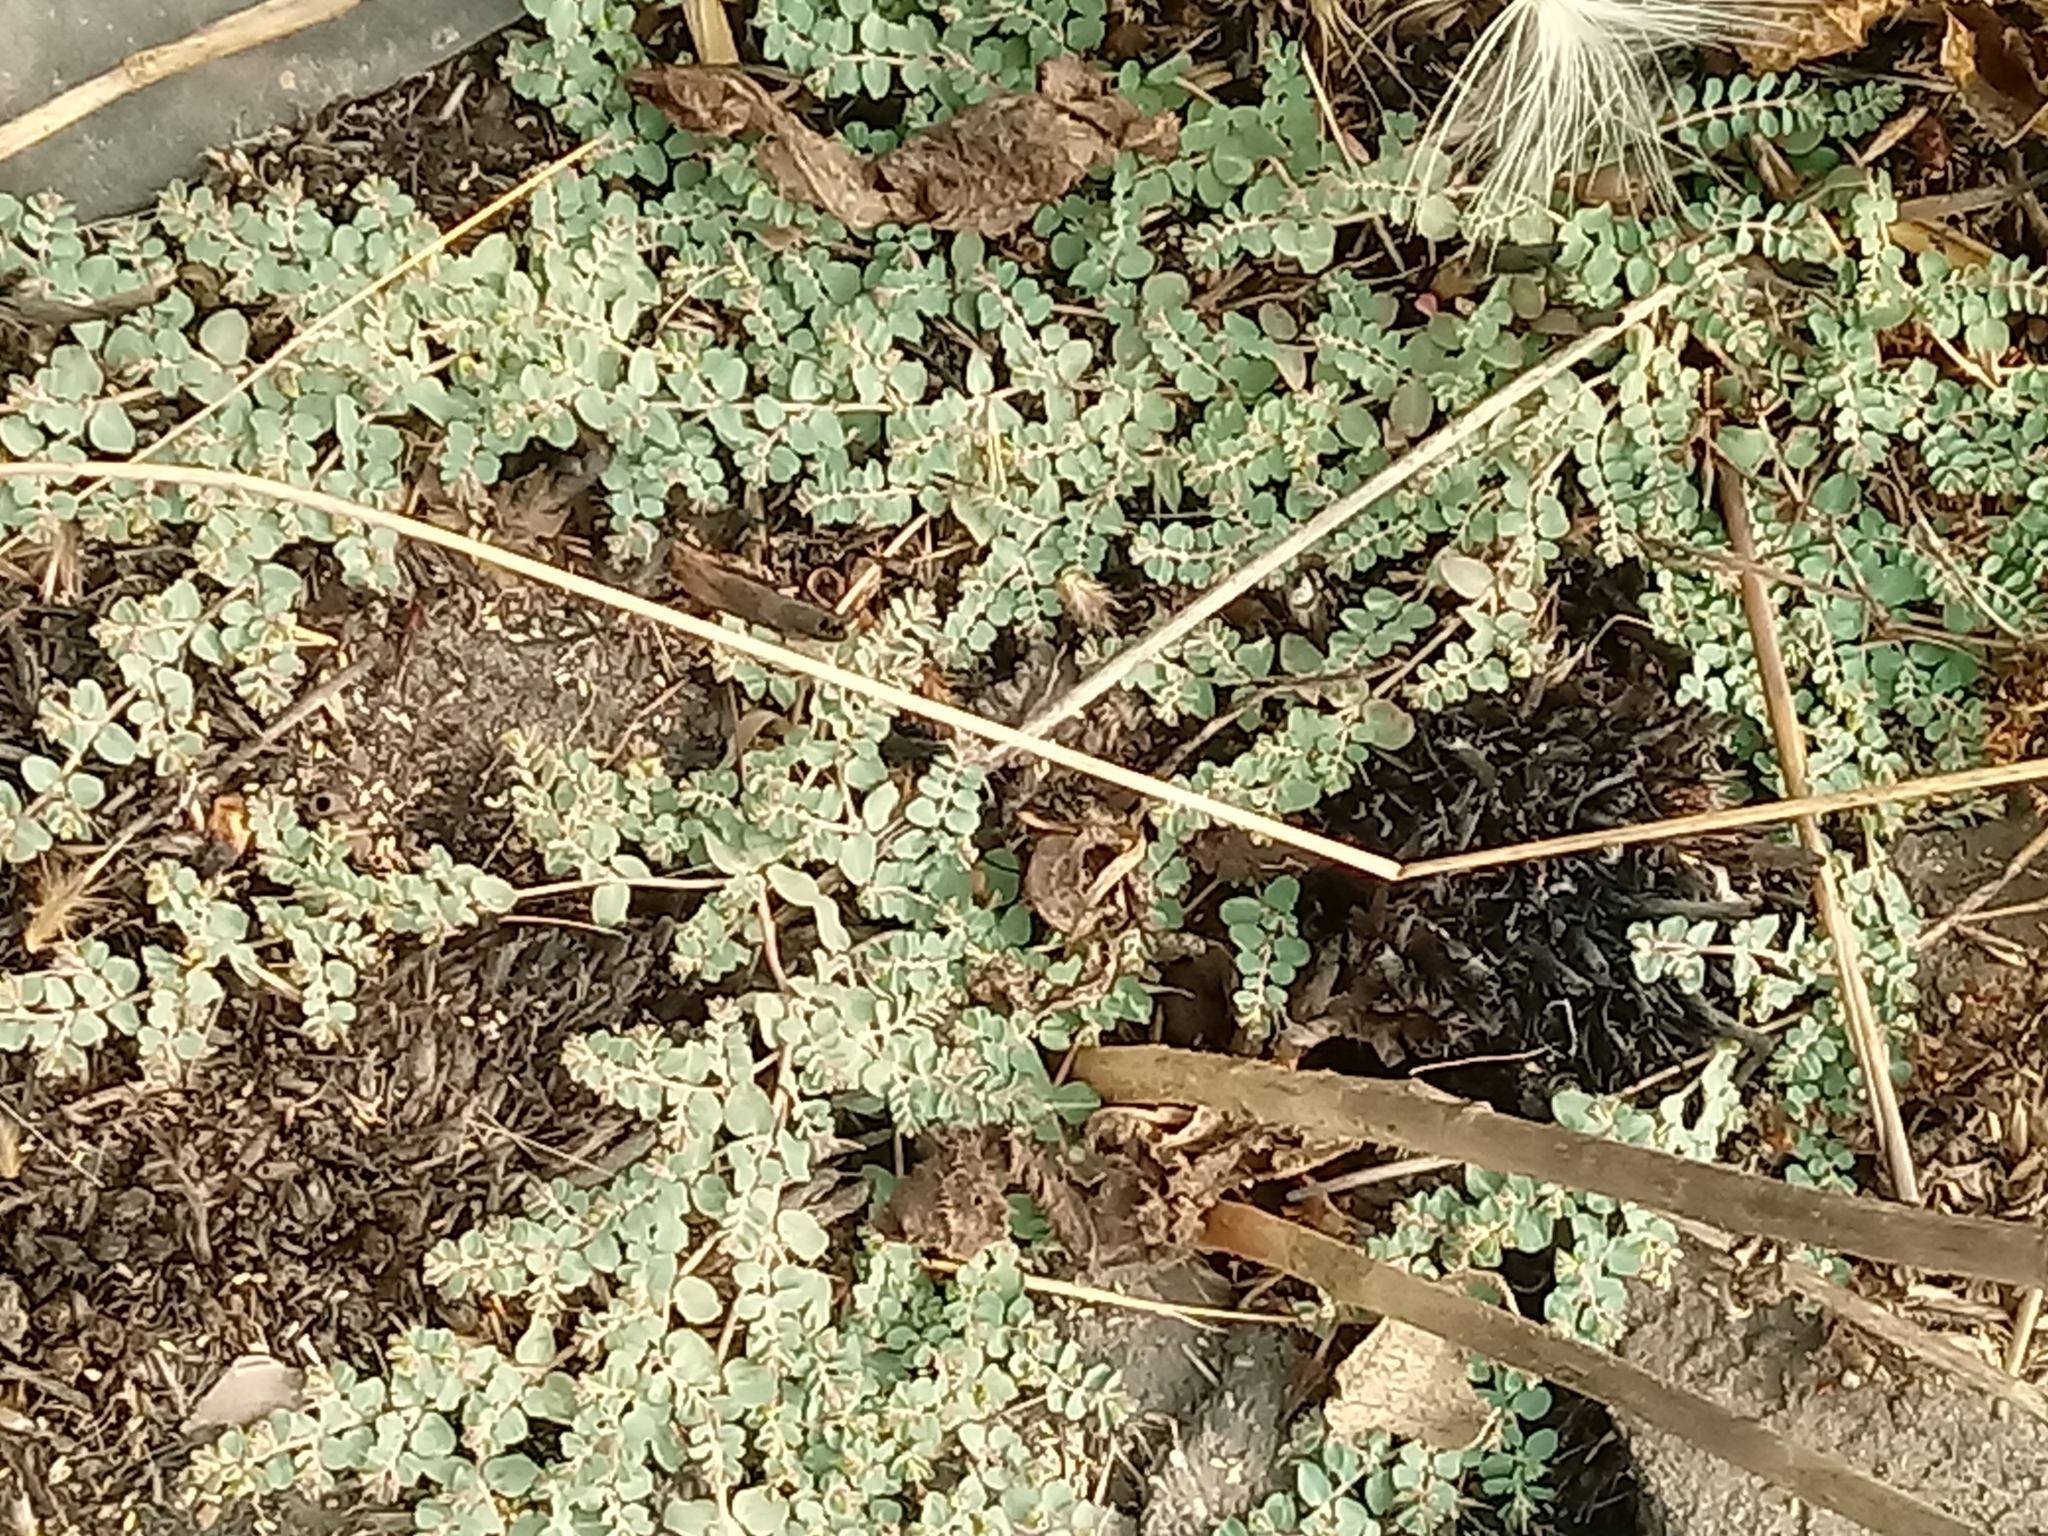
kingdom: Plantae
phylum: Tracheophyta
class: Magnoliopsida
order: Malpighiales
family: Euphorbiaceae
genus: Euphorbia
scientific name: Euphorbia serpens
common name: Matted sandmat
